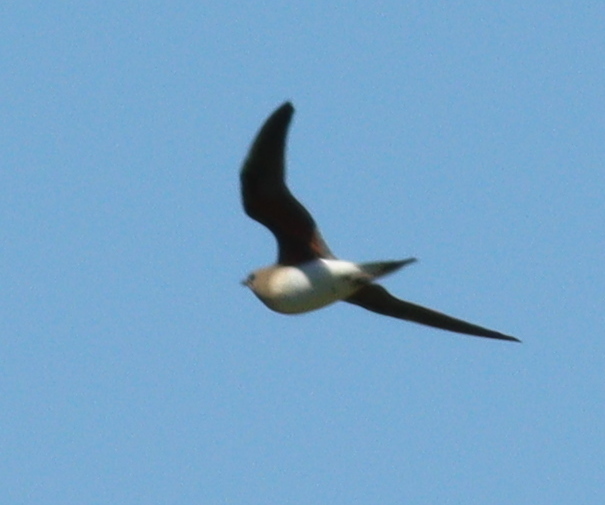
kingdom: Animalia
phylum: Chordata
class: Aves
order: Charadriiformes
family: Glareolidae
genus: Glareola
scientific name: Glareola pratincola
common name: Collared pratincole
